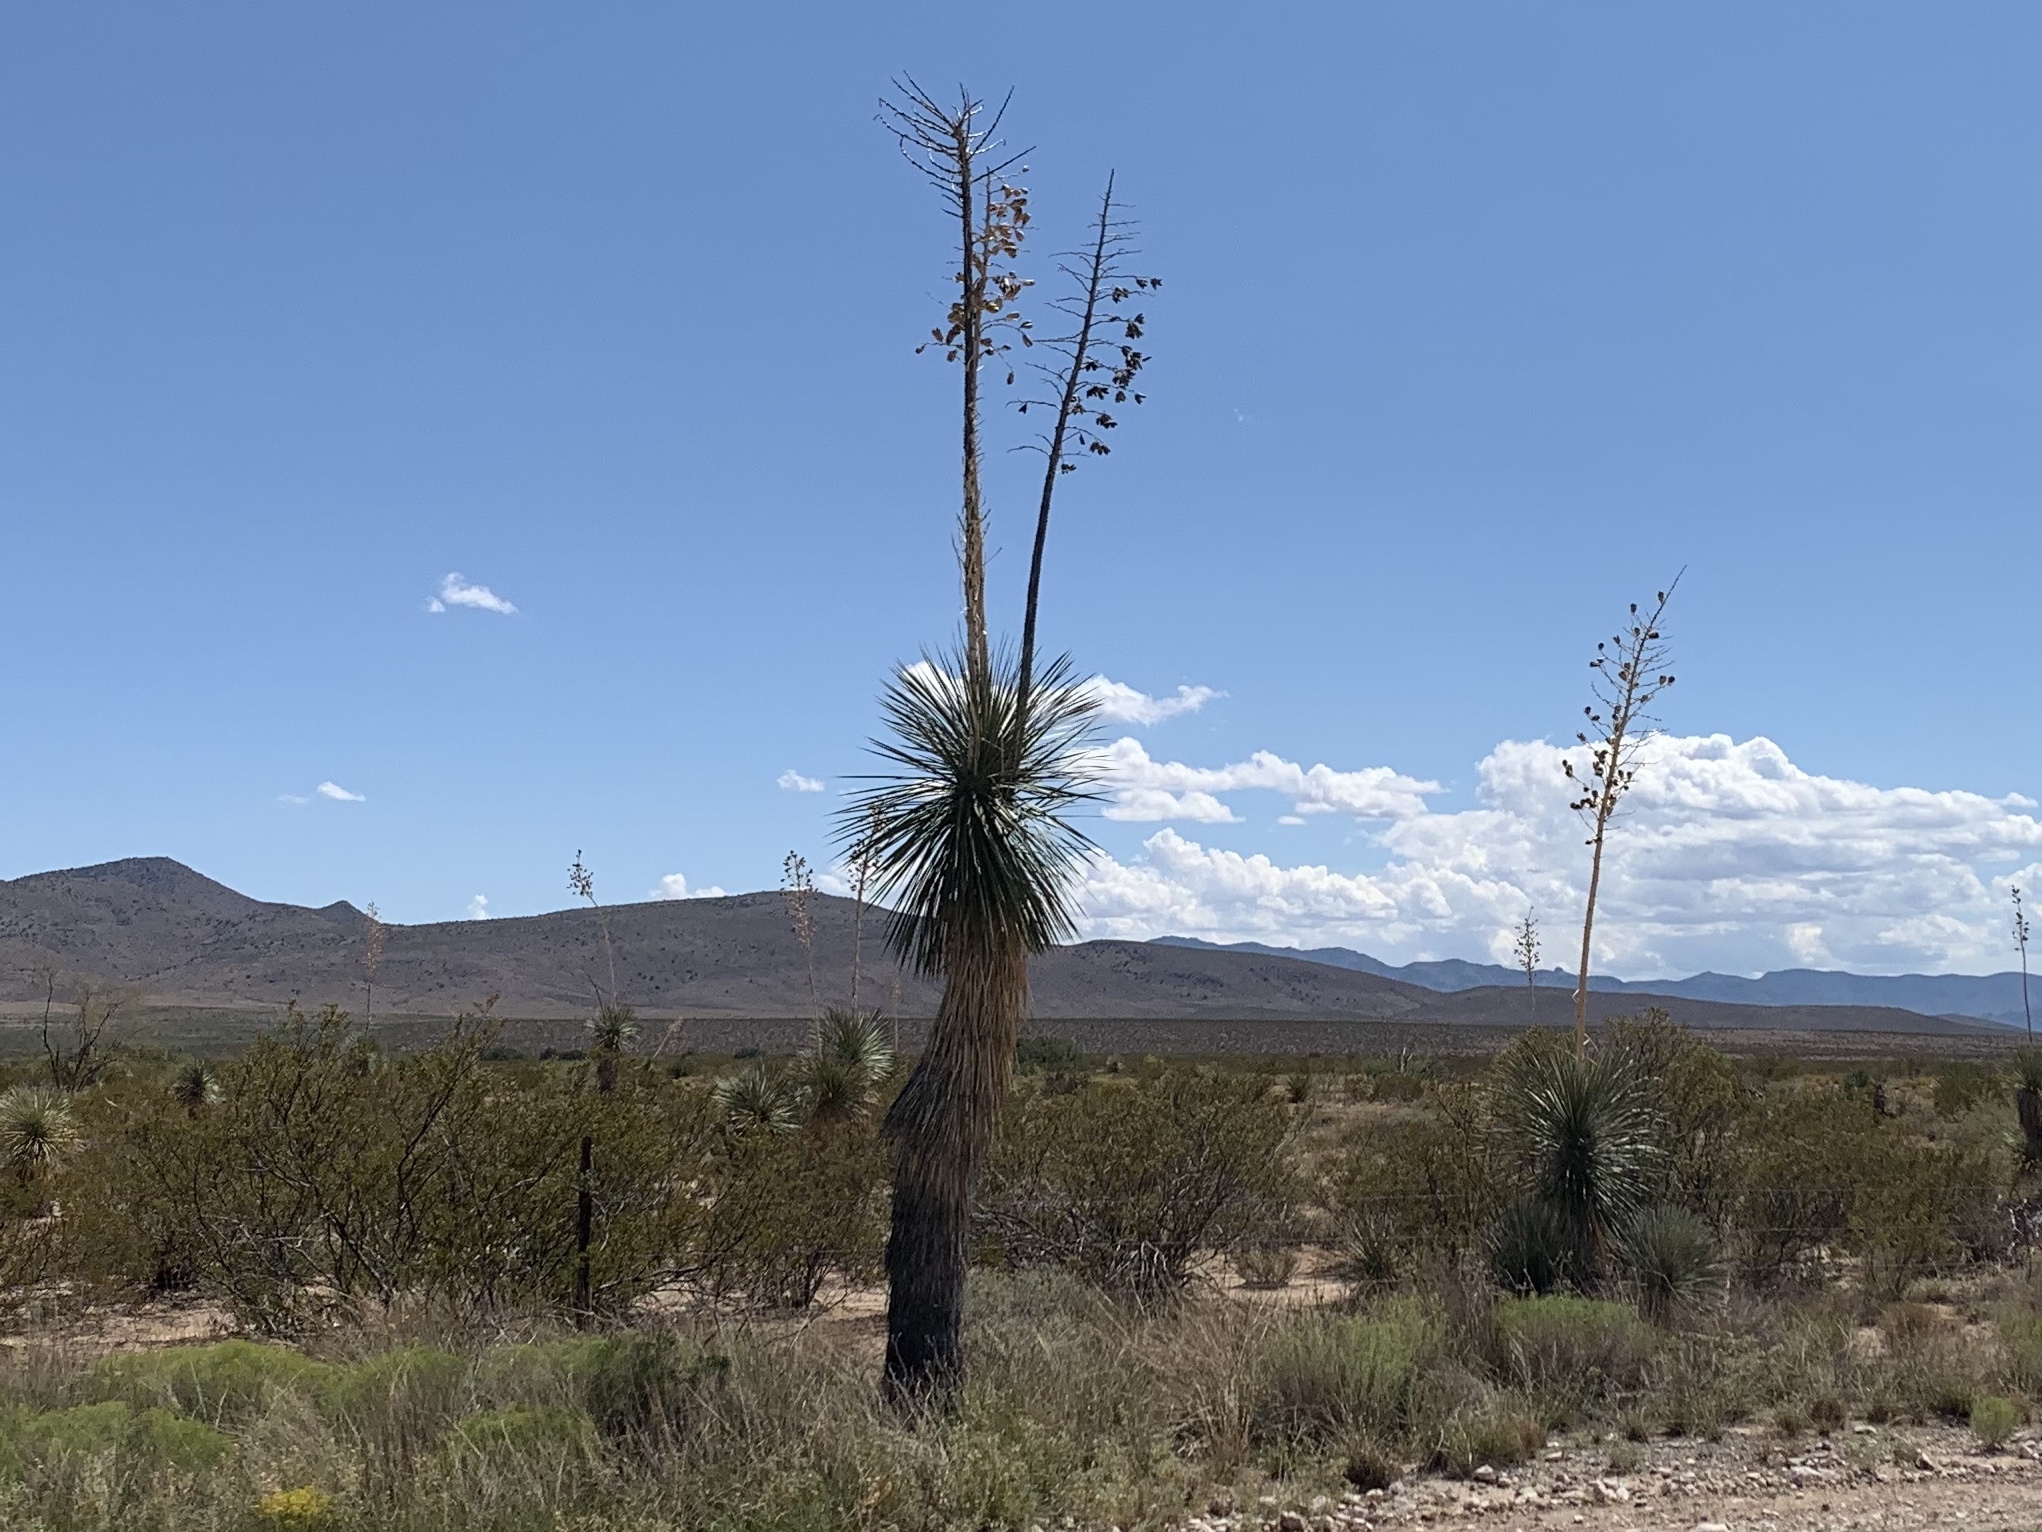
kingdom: Plantae
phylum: Tracheophyta
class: Liliopsida
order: Asparagales
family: Asparagaceae
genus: Yucca
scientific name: Yucca elata
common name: Palmella
